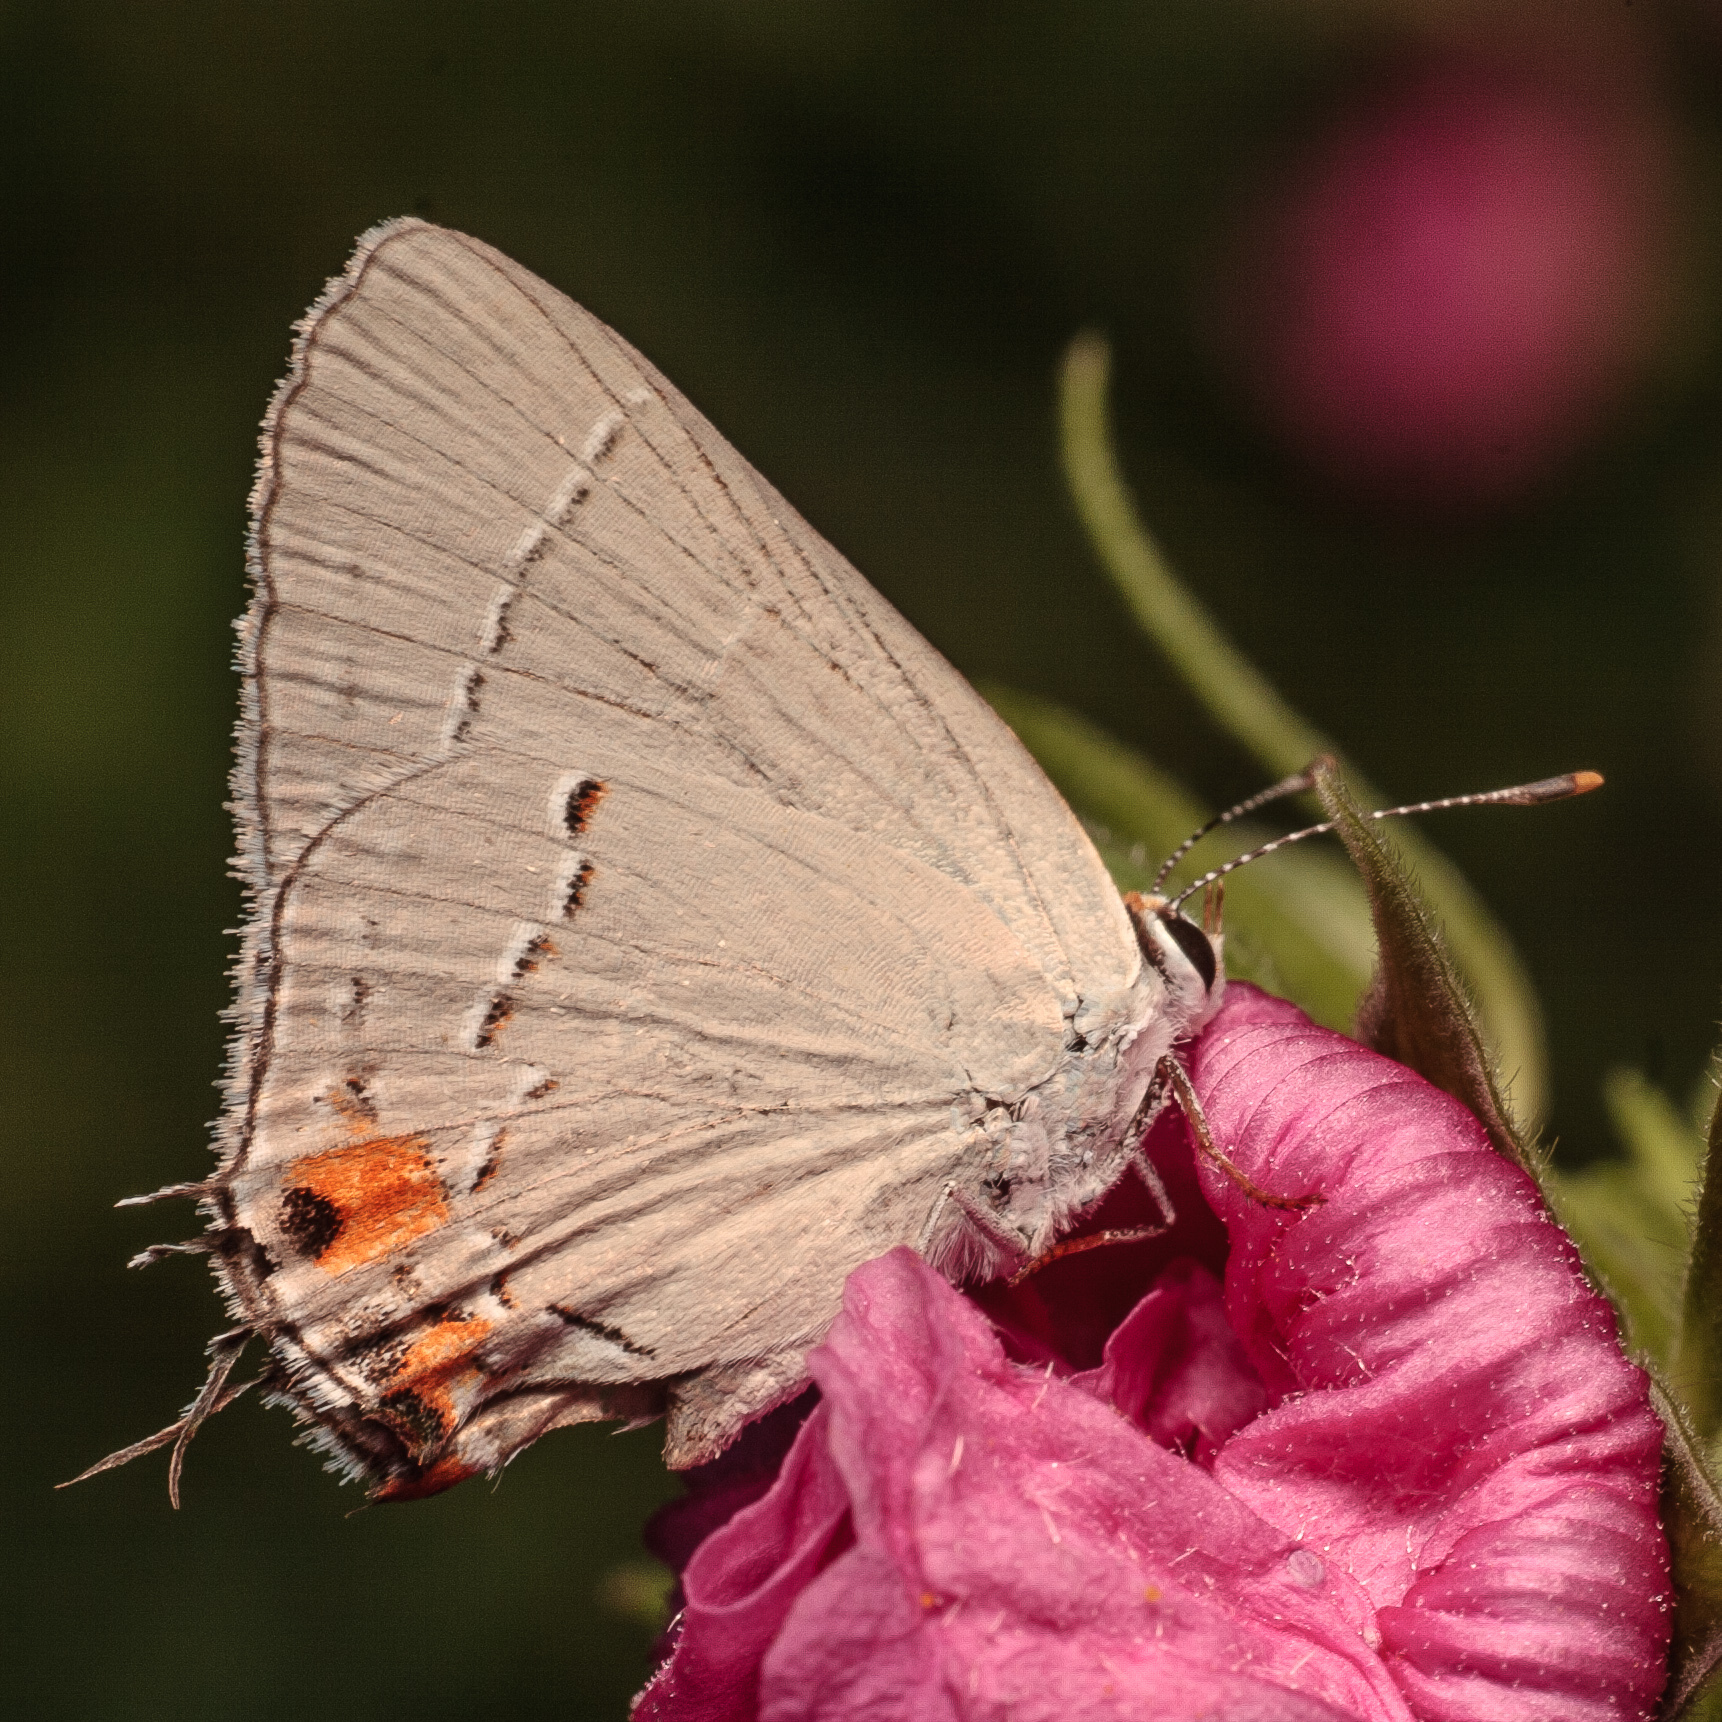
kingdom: Animalia
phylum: Arthropoda
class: Insecta
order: Lepidoptera
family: Lycaenidae
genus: Strymon
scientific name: Strymon melinus
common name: Gray hairstreak
